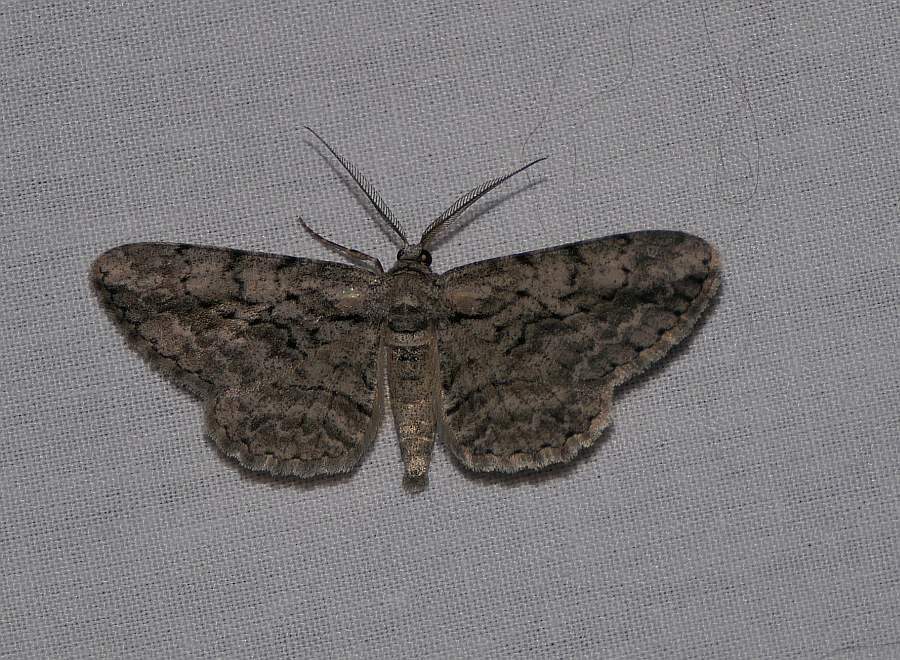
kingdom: Animalia
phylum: Arthropoda
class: Insecta
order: Lepidoptera
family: Geometridae
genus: Anavitrinella
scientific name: Anavitrinella pampinaria
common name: Common gray
